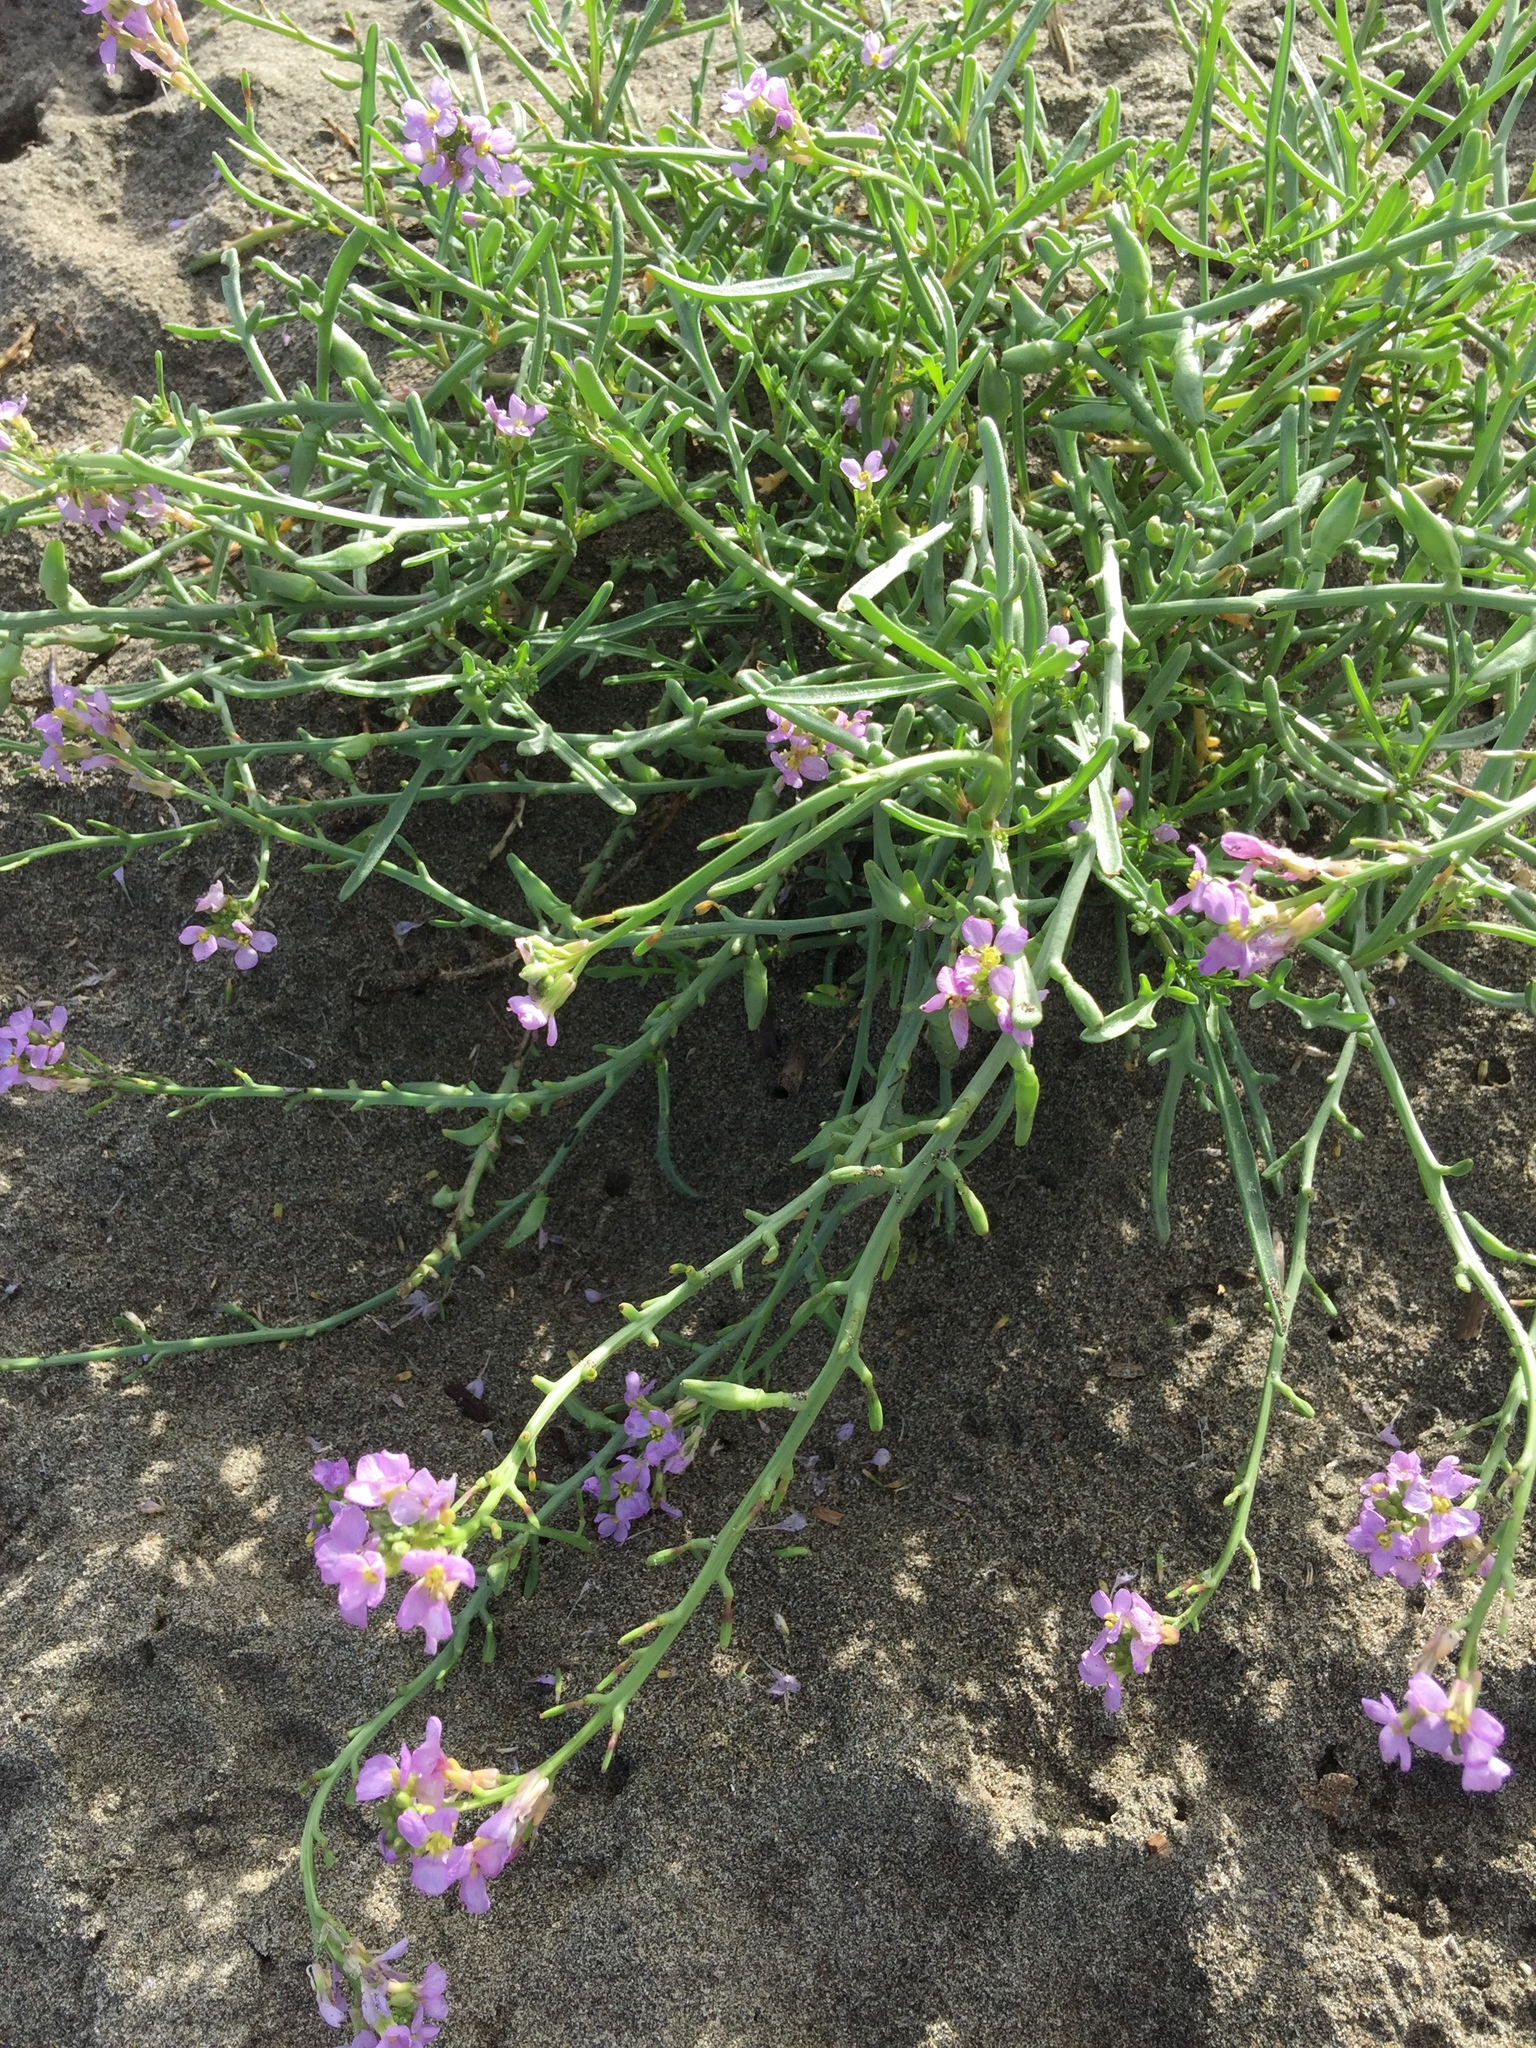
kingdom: Plantae
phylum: Tracheophyta
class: Magnoliopsida
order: Brassicales
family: Brassicaceae
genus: Cakile
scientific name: Cakile maritima
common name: Sea rocket
